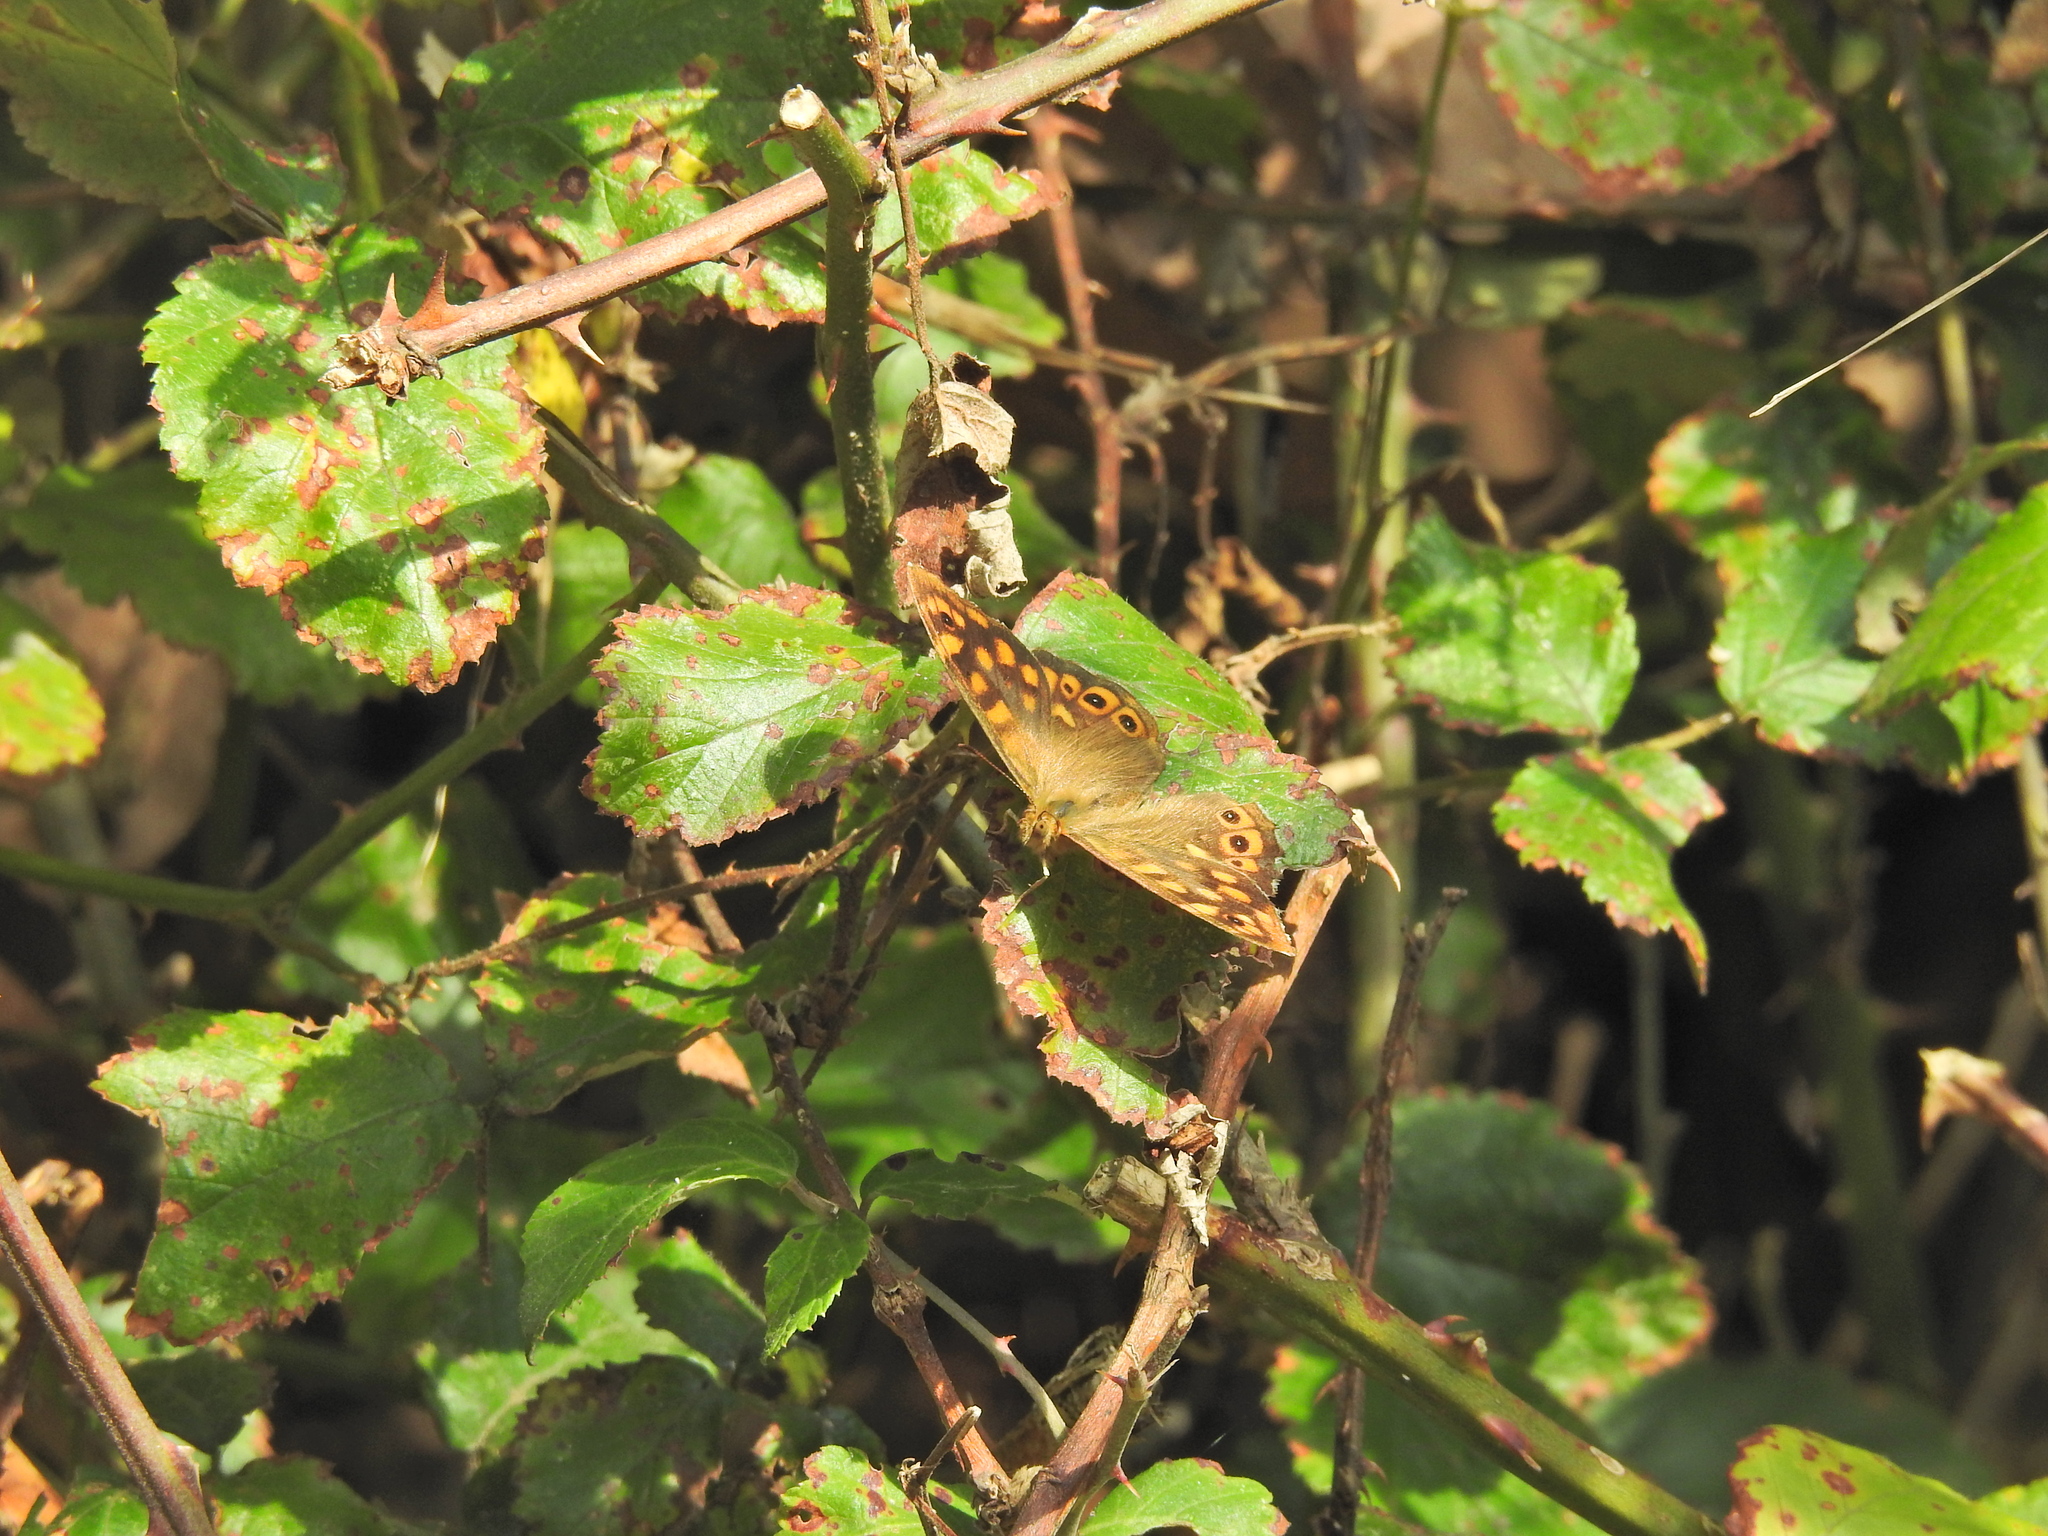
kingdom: Animalia
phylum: Arthropoda
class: Insecta
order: Lepidoptera
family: Nymphalidae
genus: Pararge
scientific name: Pararge aegeria
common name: Speckled wood
